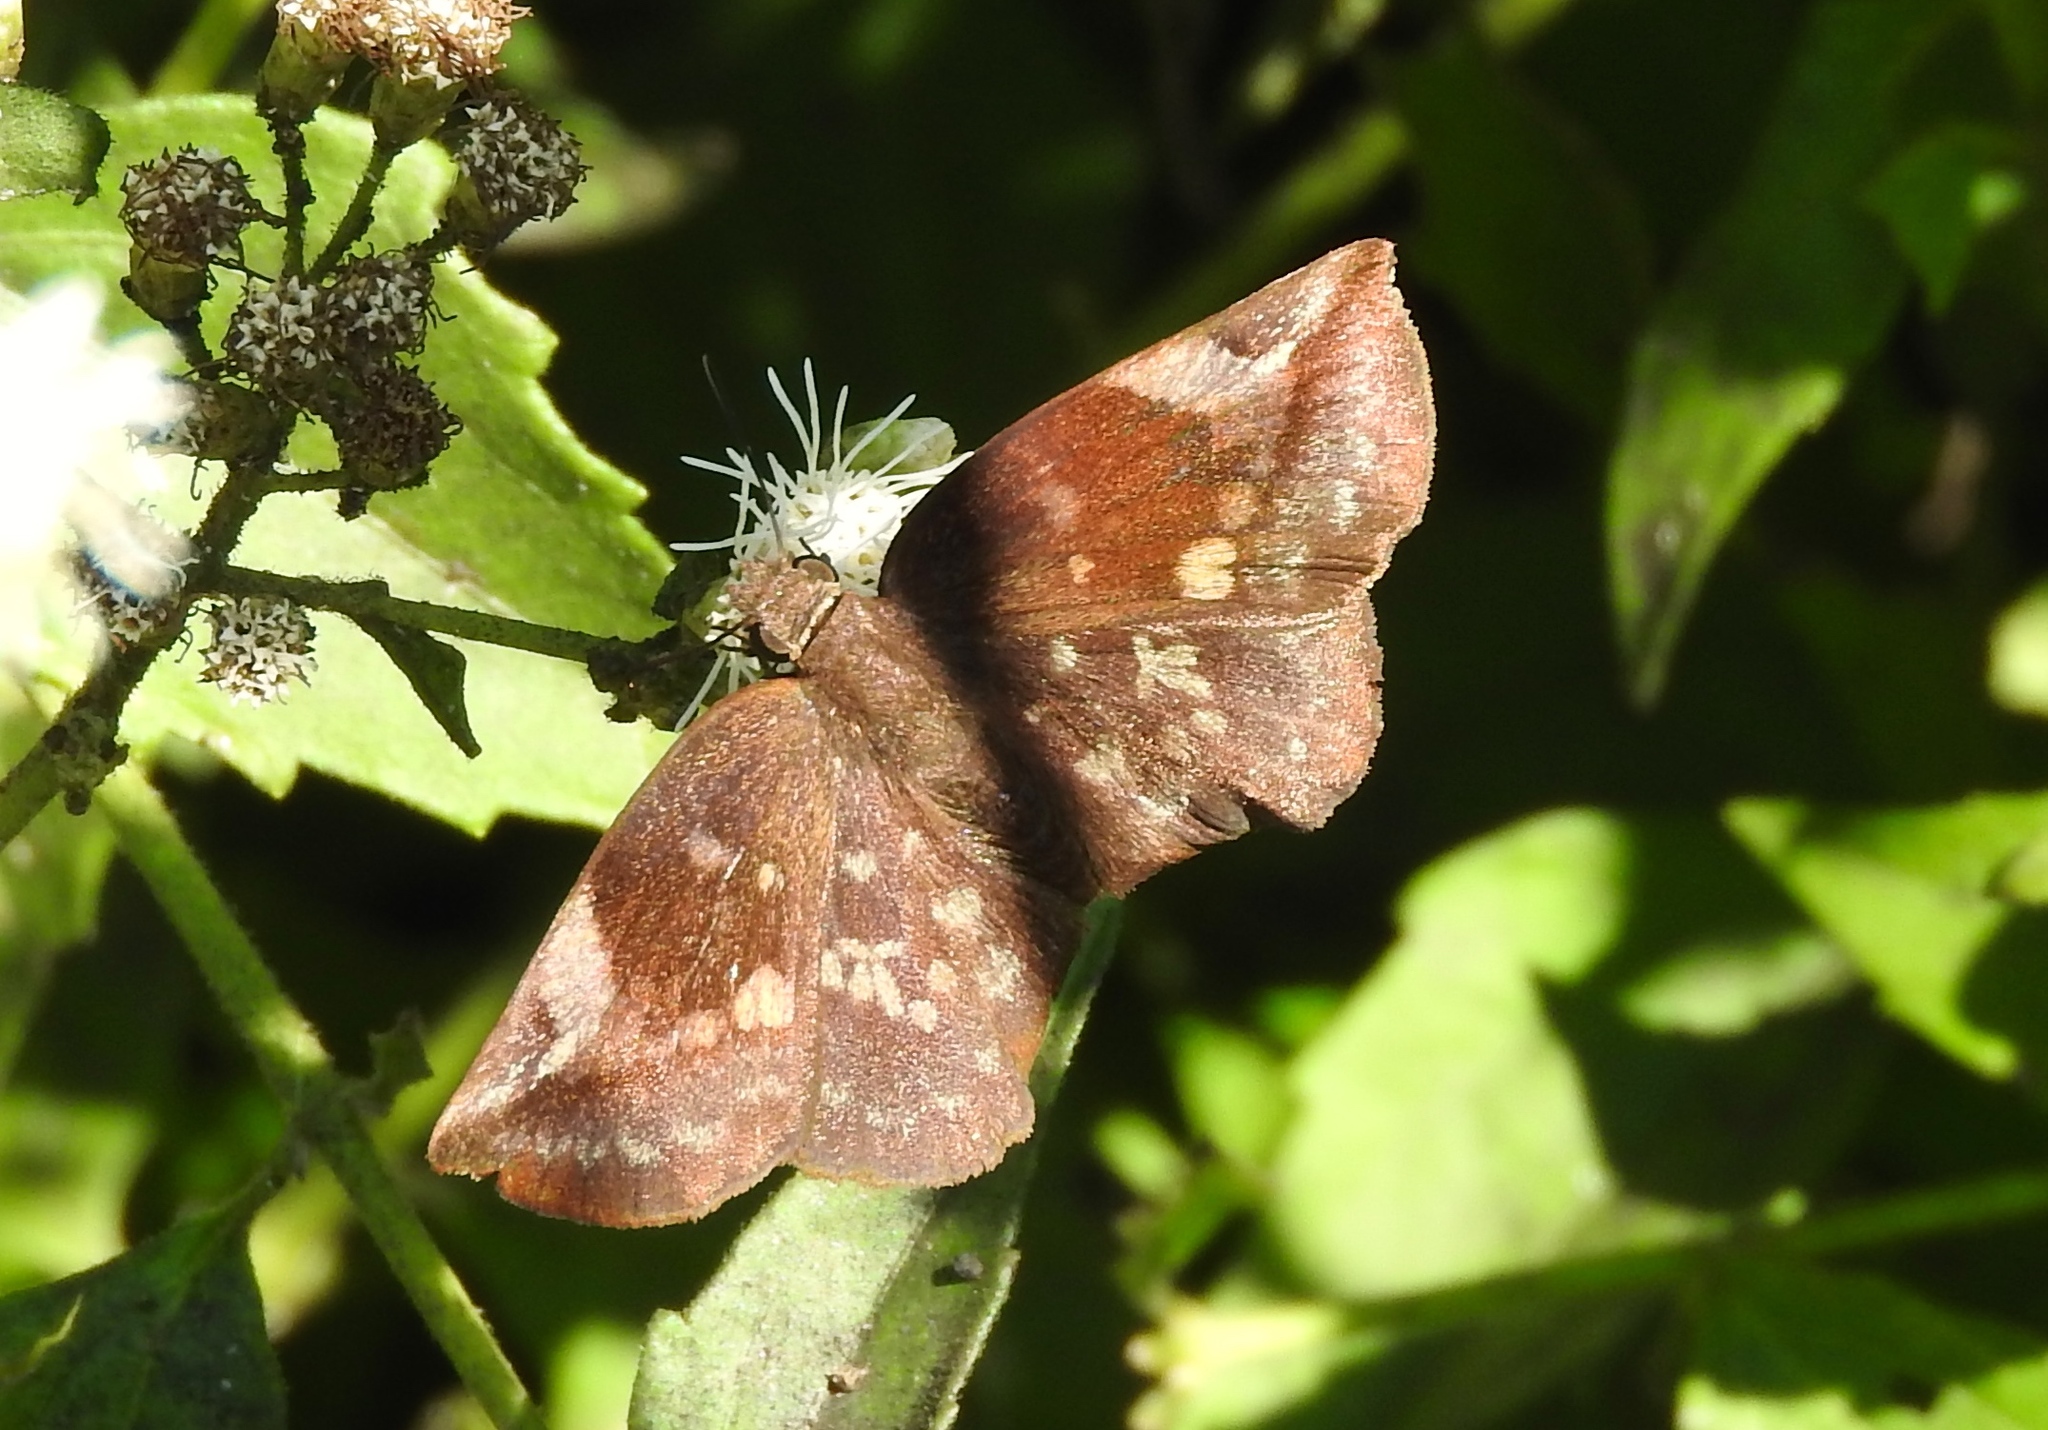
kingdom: Animalia
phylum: Arthropoda
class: Insecta
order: Lepidoptera
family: Hesperiidae
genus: Achlyodes
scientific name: Achlyodes thraso
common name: Sickle-winged skipper
